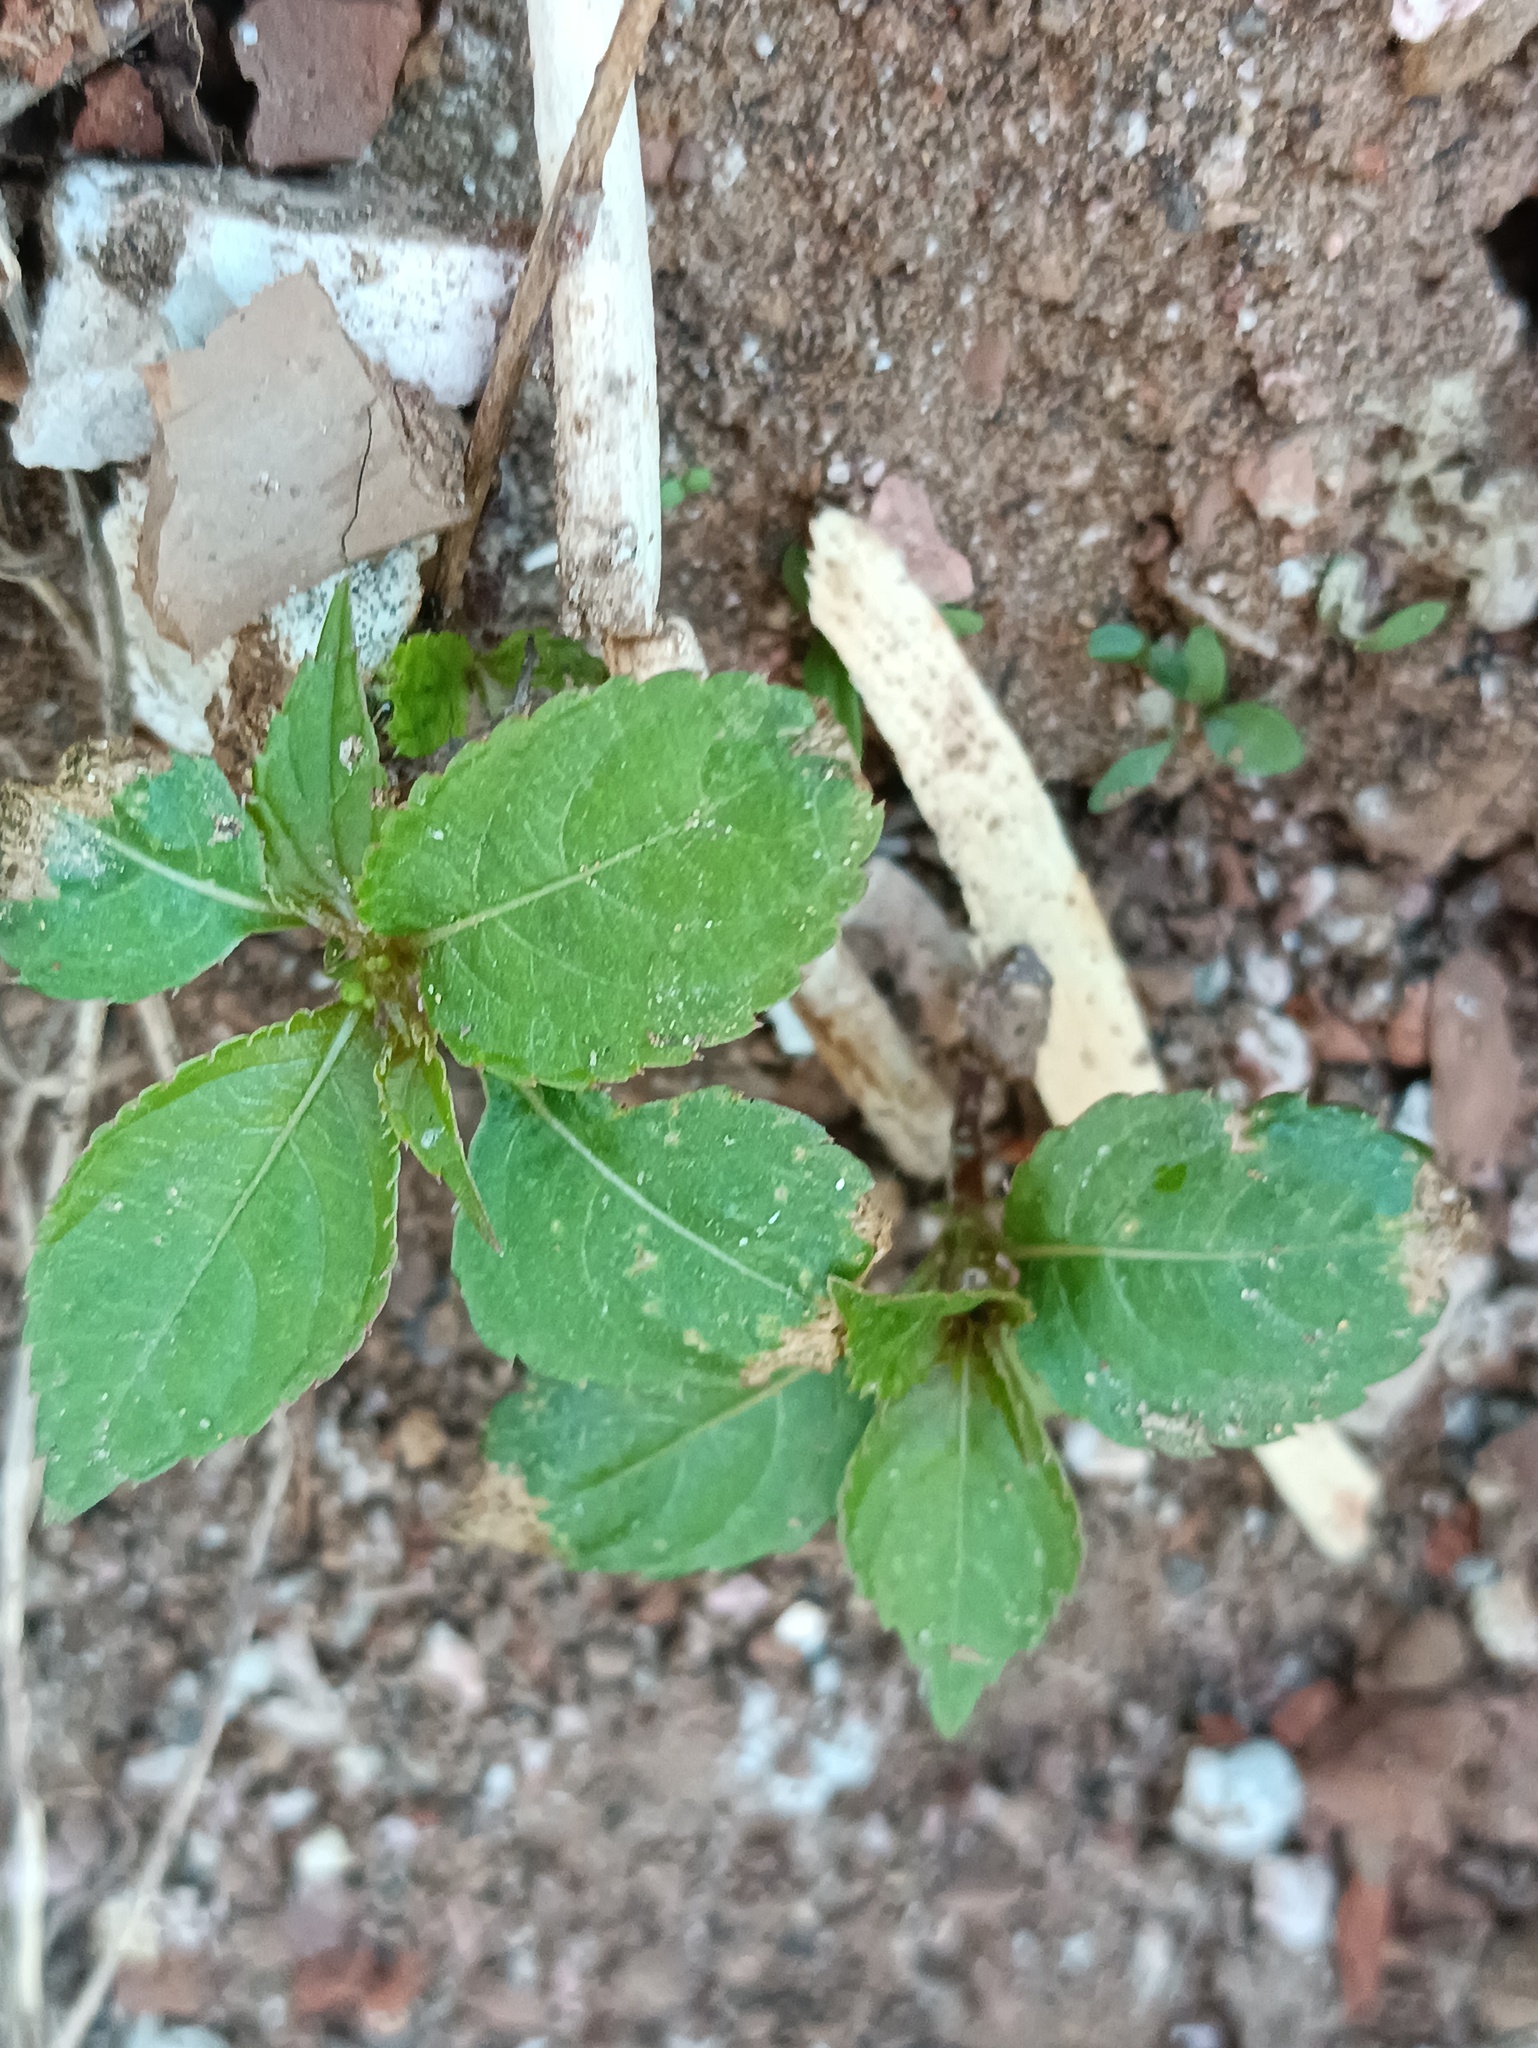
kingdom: Plantae
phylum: Tracheophyta
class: Magnoliopsida
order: Ericales
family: Balsaminaceae
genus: Impatiens
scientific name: Impatiens parviflora
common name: Small balsam
